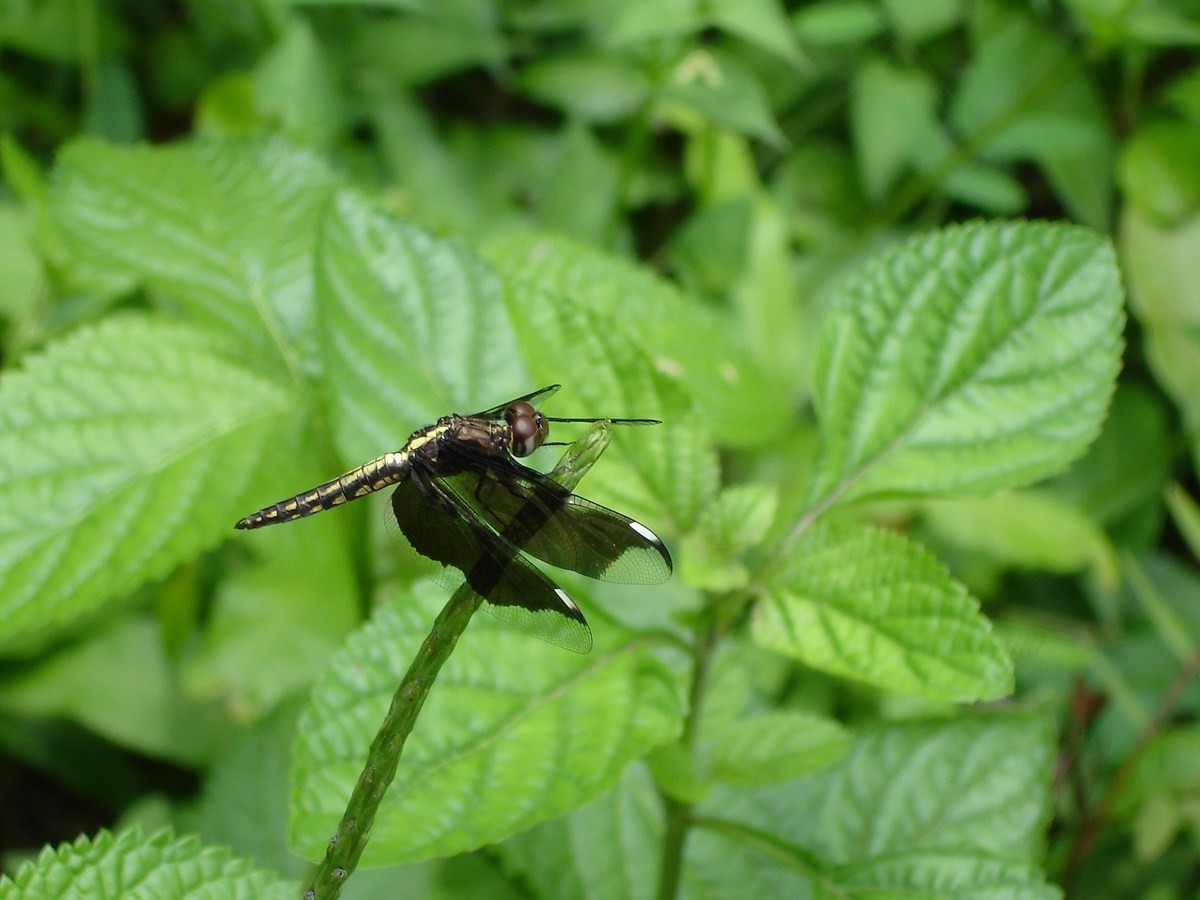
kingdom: Animalia
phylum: Arthropoda
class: Insecta
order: Odonata
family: Libellulidae
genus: Palpopleura
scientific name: Palpopleura lucia
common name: Lucia widow
